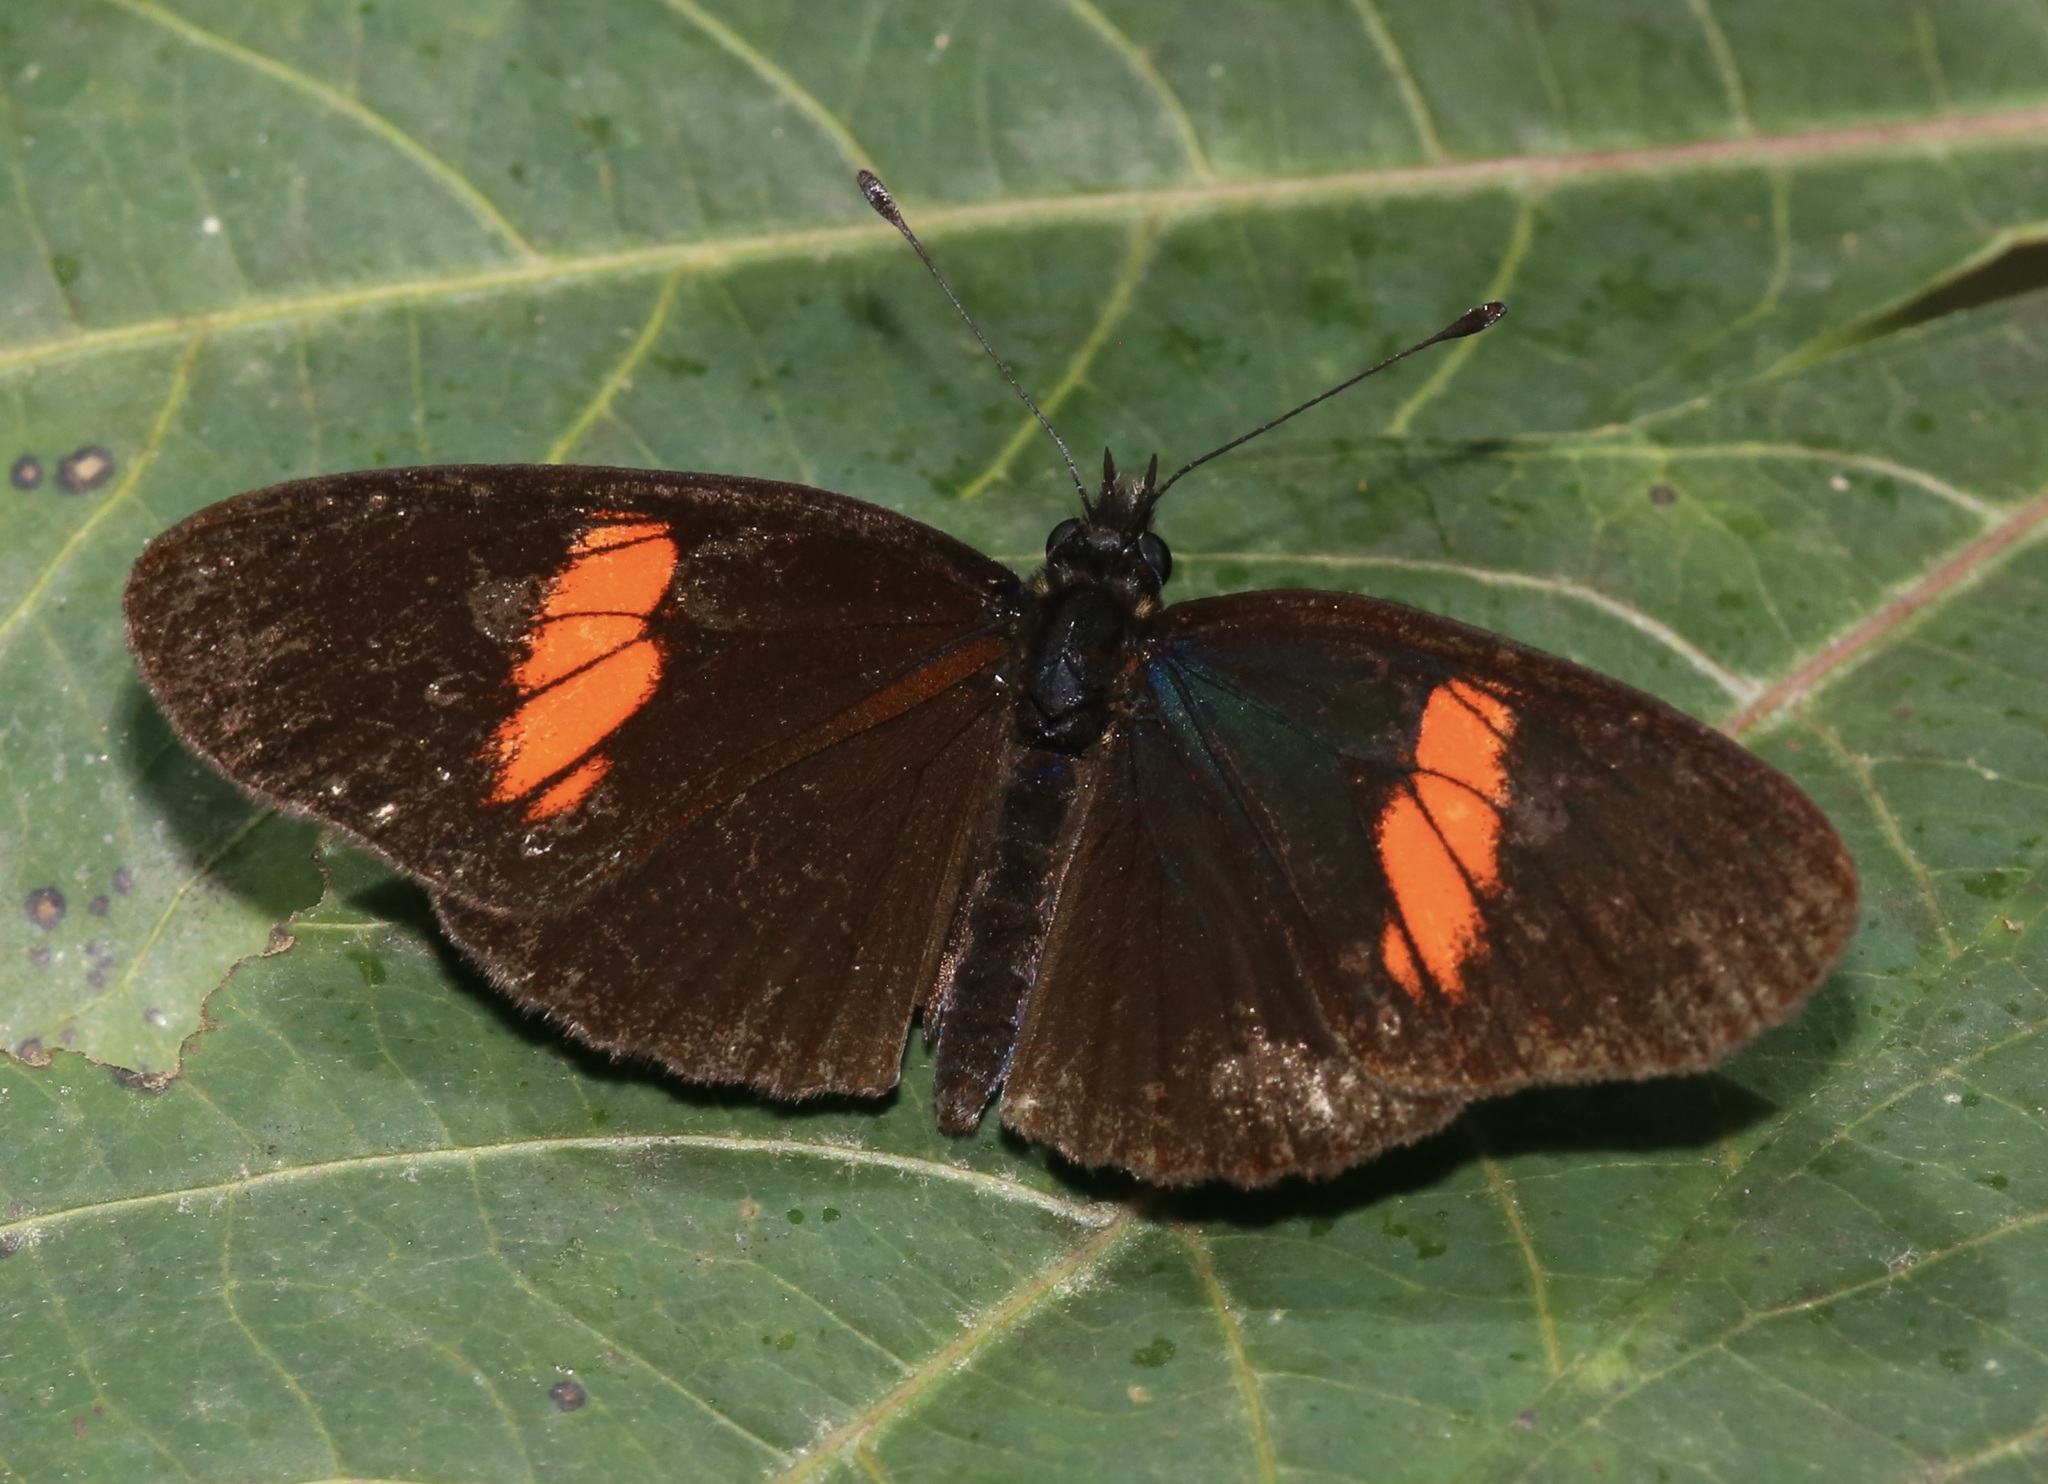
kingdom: Animalia
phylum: Arthropoda
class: Insecta
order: Lepidoptera
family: Nymphalidae
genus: Castilia
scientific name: Castilia castilla
